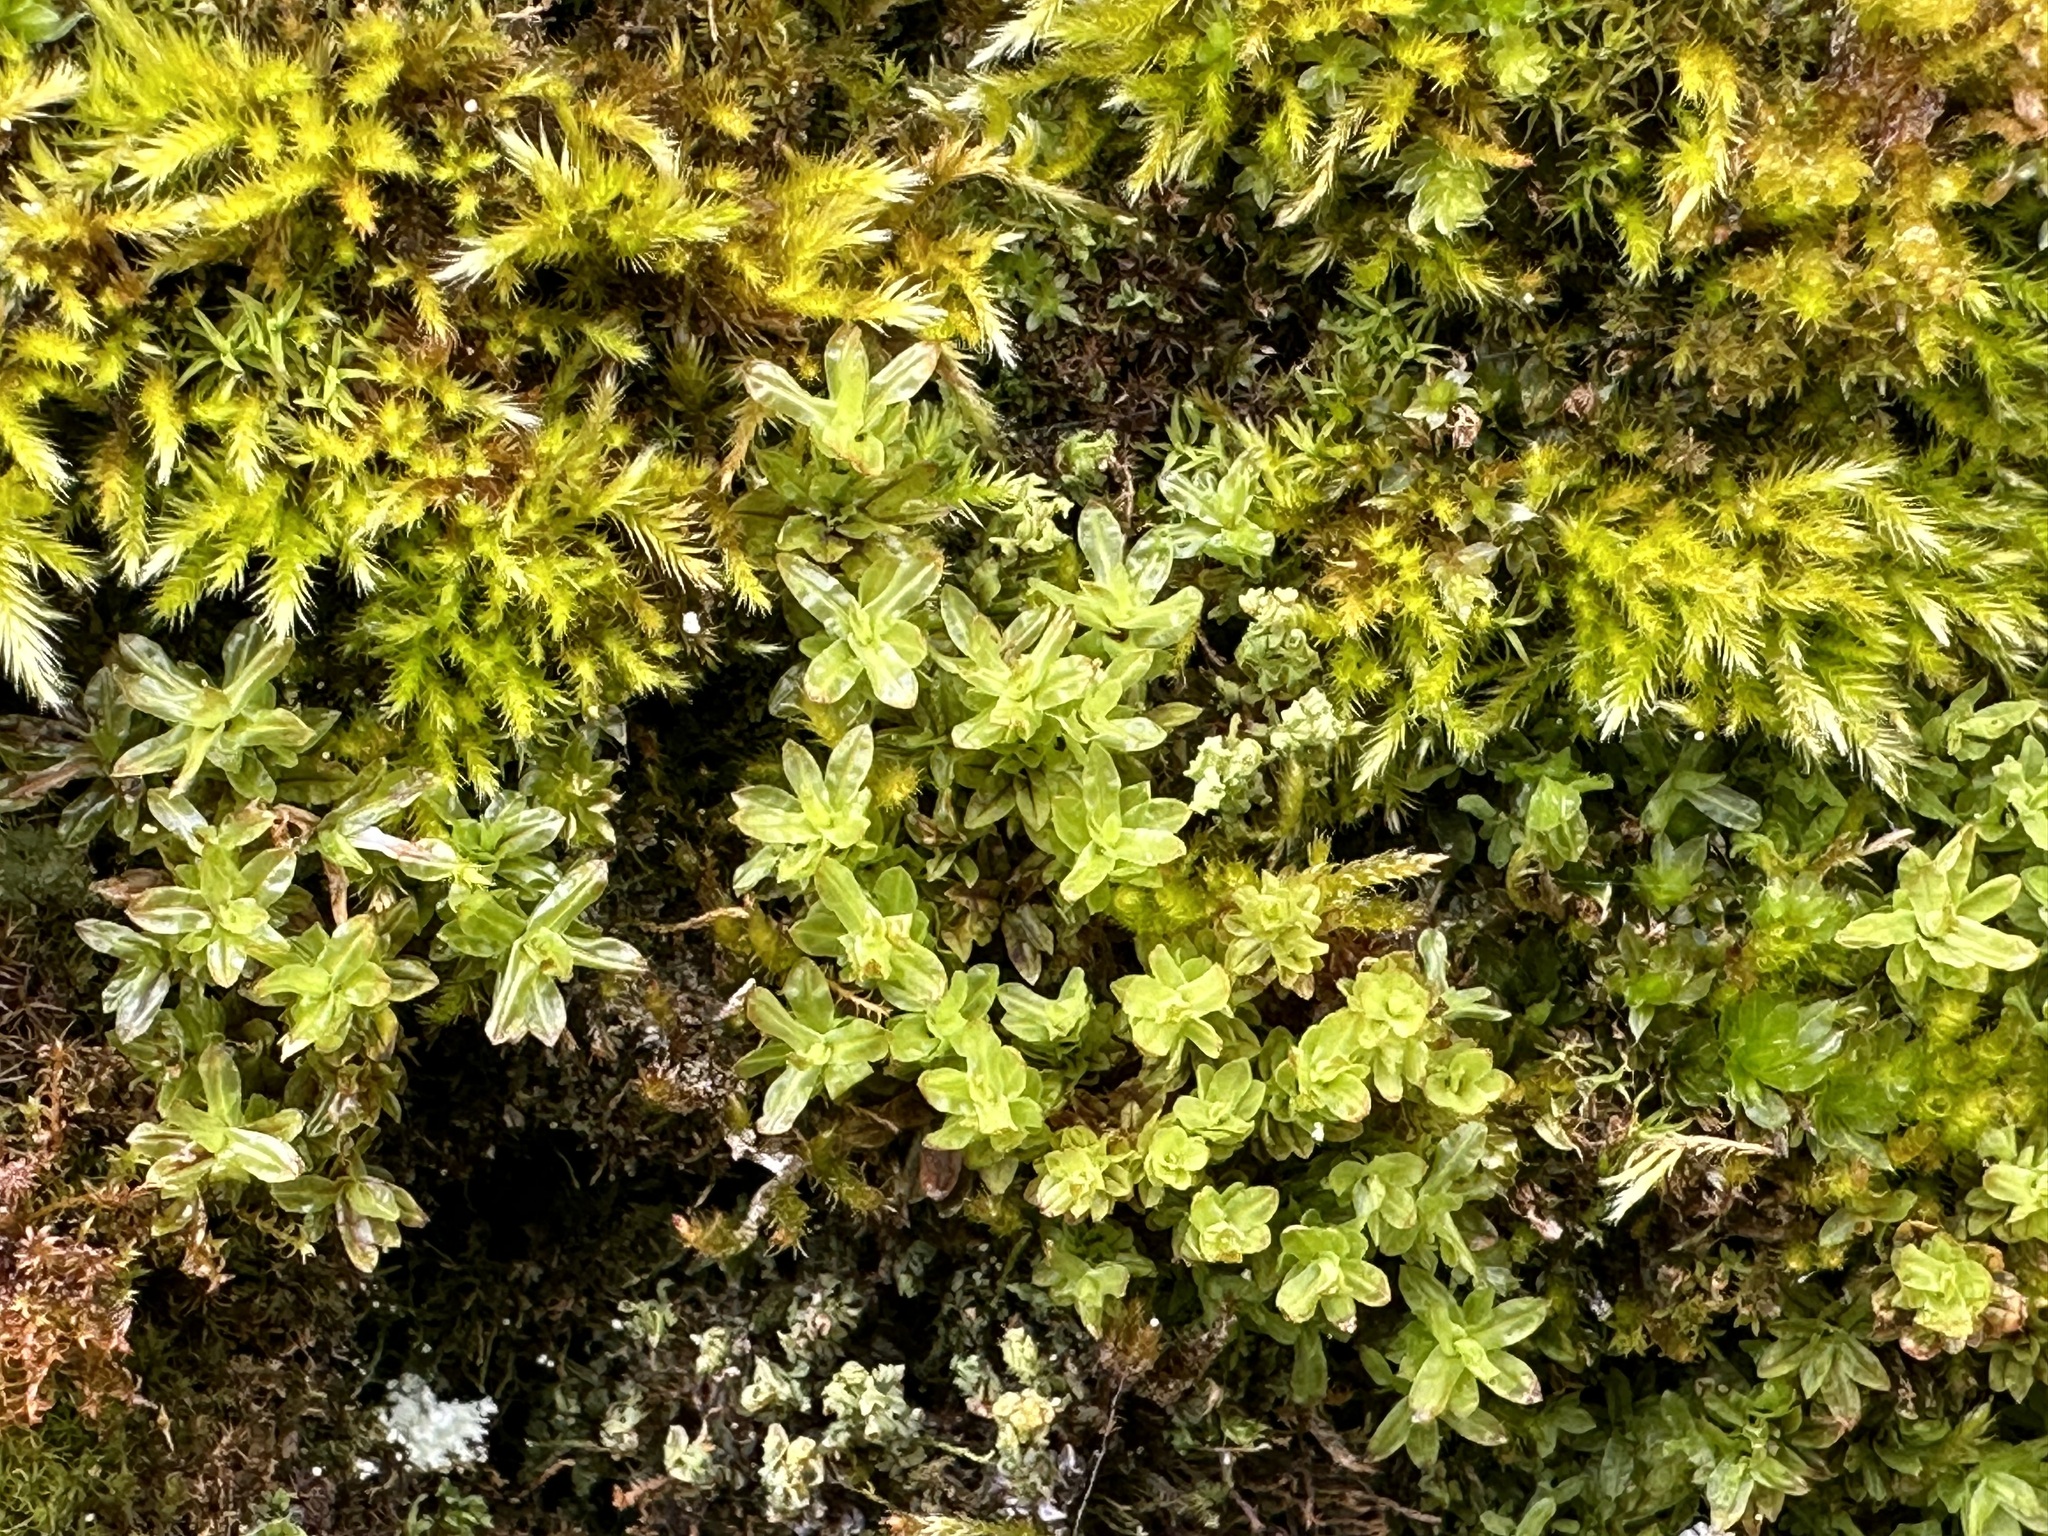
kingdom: Plantae
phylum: Bryophyta
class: Bryopsida
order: Encalyptales
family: Encalyptaceae
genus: Encalypta
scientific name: Encalypta streptocarpa
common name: Spiral extinguisher-moss
